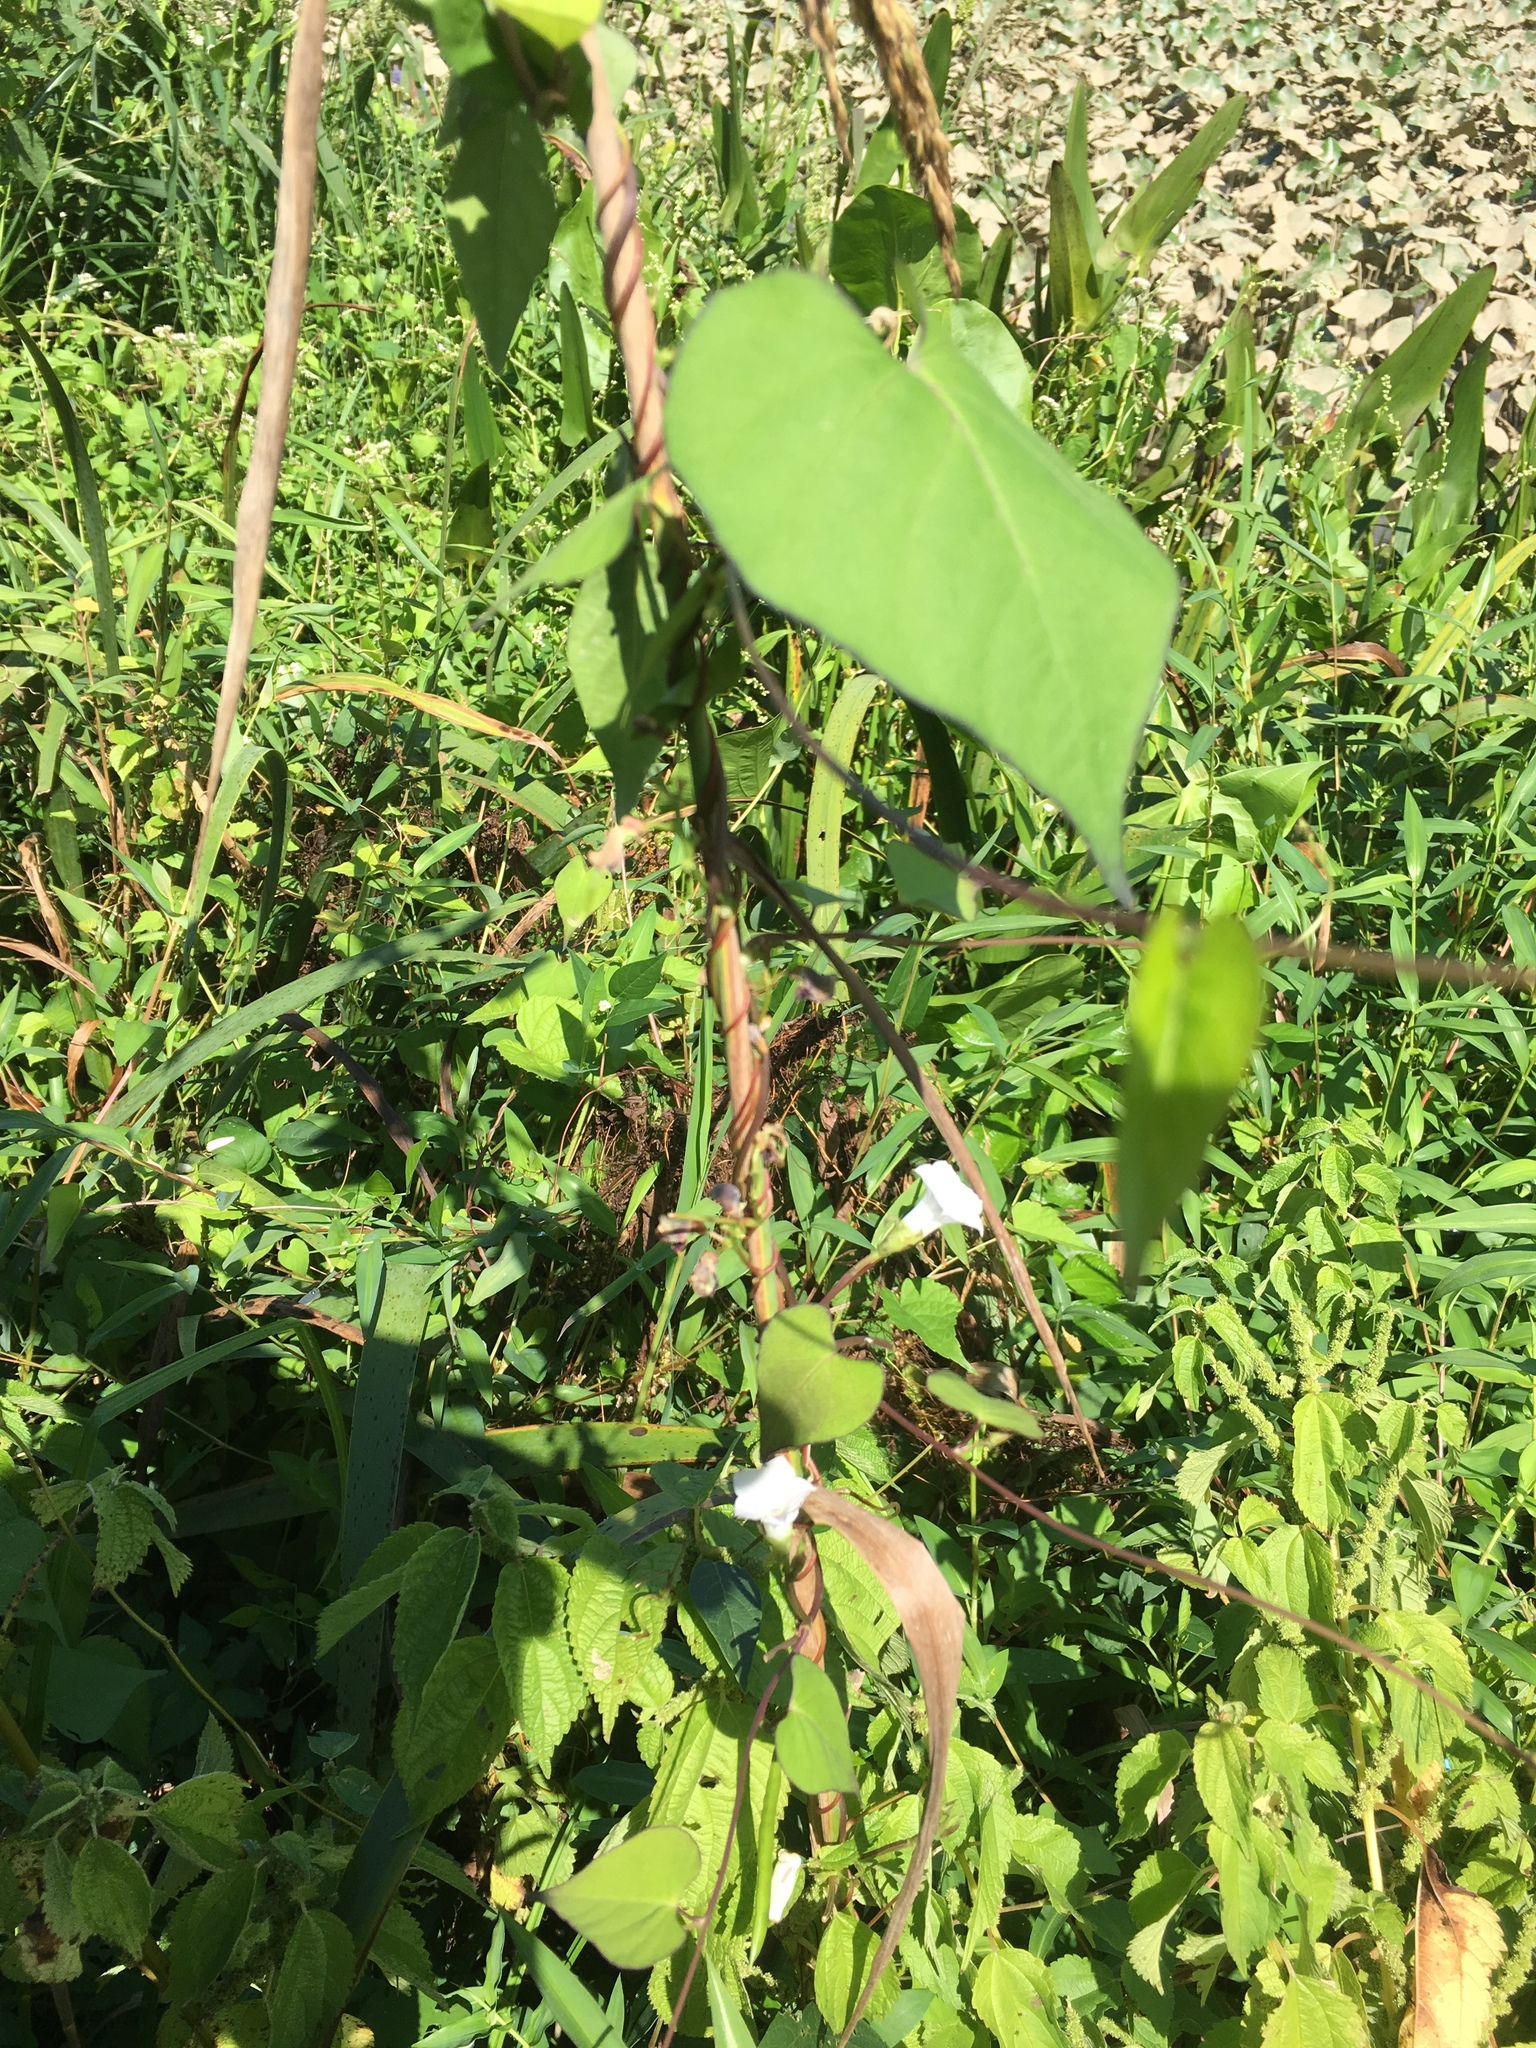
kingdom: Plantae
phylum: Tracheophyta
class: Magnoliopsida
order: Solanales
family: Convolvulaceae
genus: Ipomoea
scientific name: Ipomoea lacunosa
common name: White morning-glory
